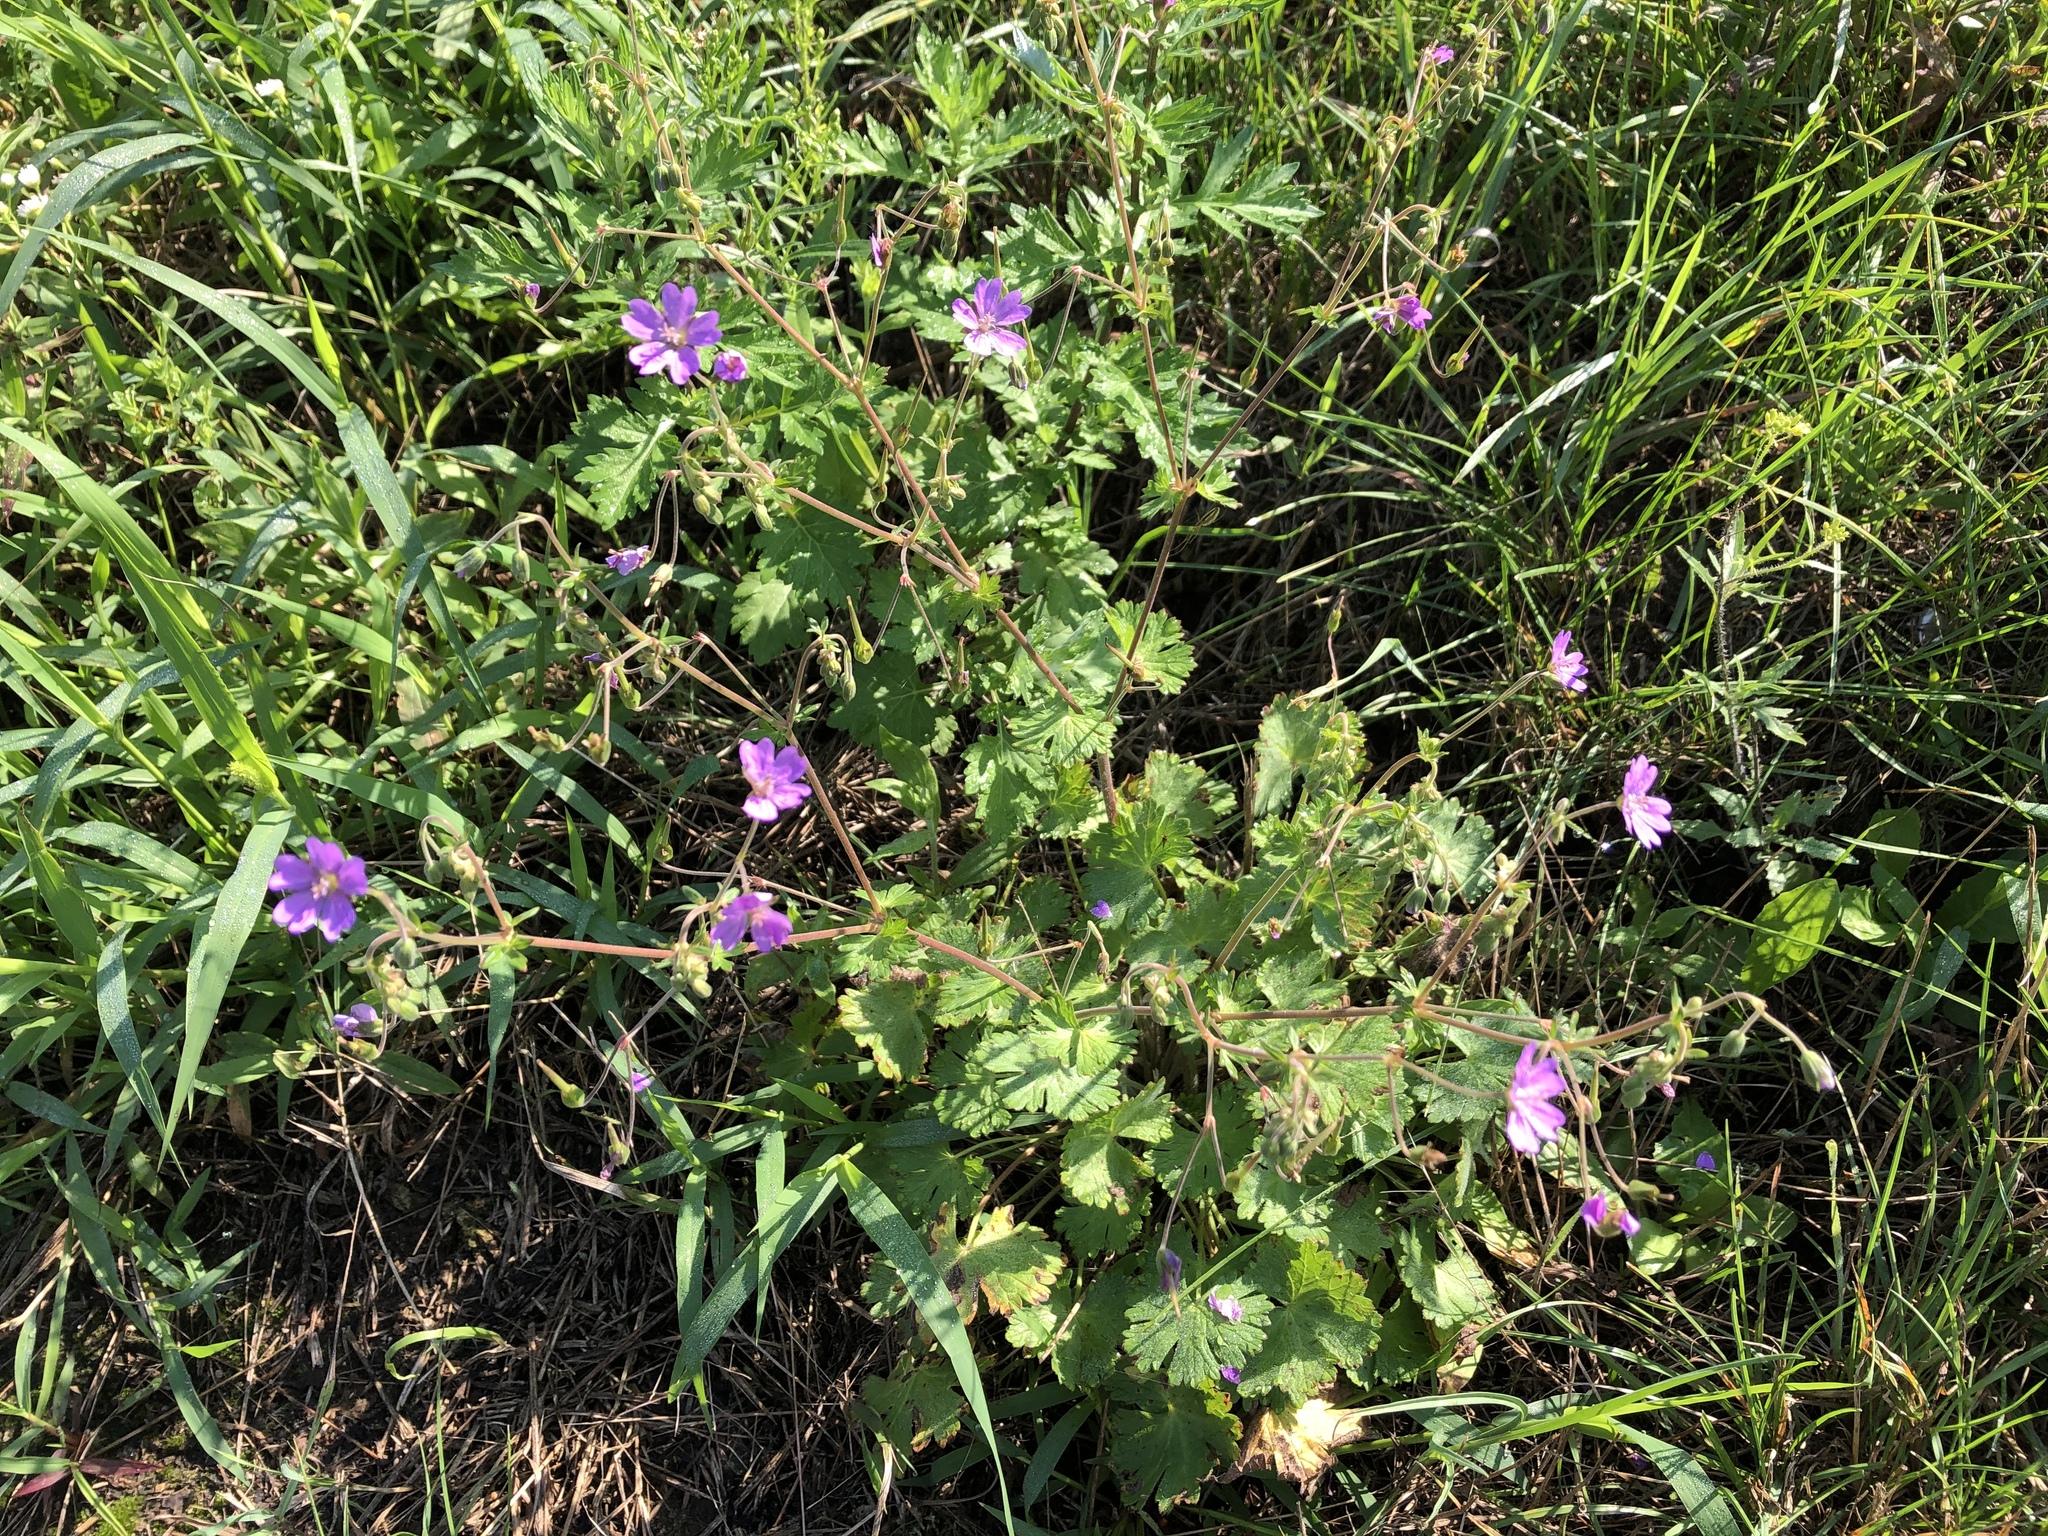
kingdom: Plantae
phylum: Tracheophyta
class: Magnoliopsida
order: Geraniales
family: Geraniaceae
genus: Geranium
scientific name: Geranium pyrenaicum
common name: Hedgerow crane's-bill
